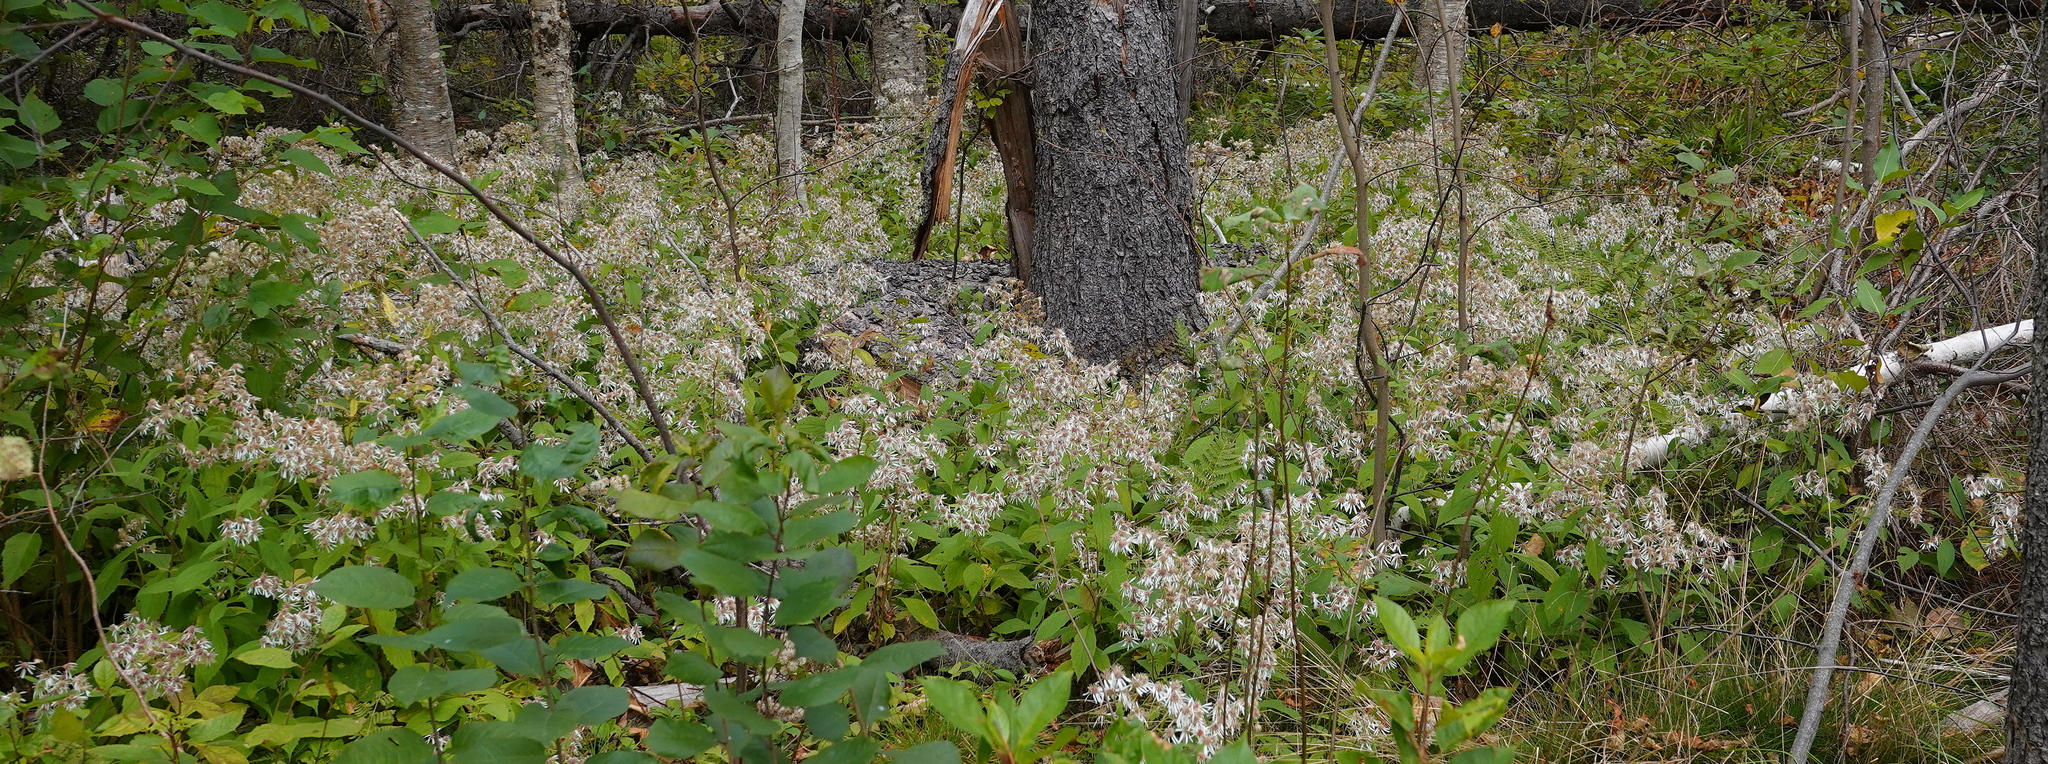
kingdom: Plantae
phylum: Tracheophyta
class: Magnoliopsida
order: Asterales
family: Asteraceae
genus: Oclemena
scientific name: Oclemena acuminata
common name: Mountain aster
